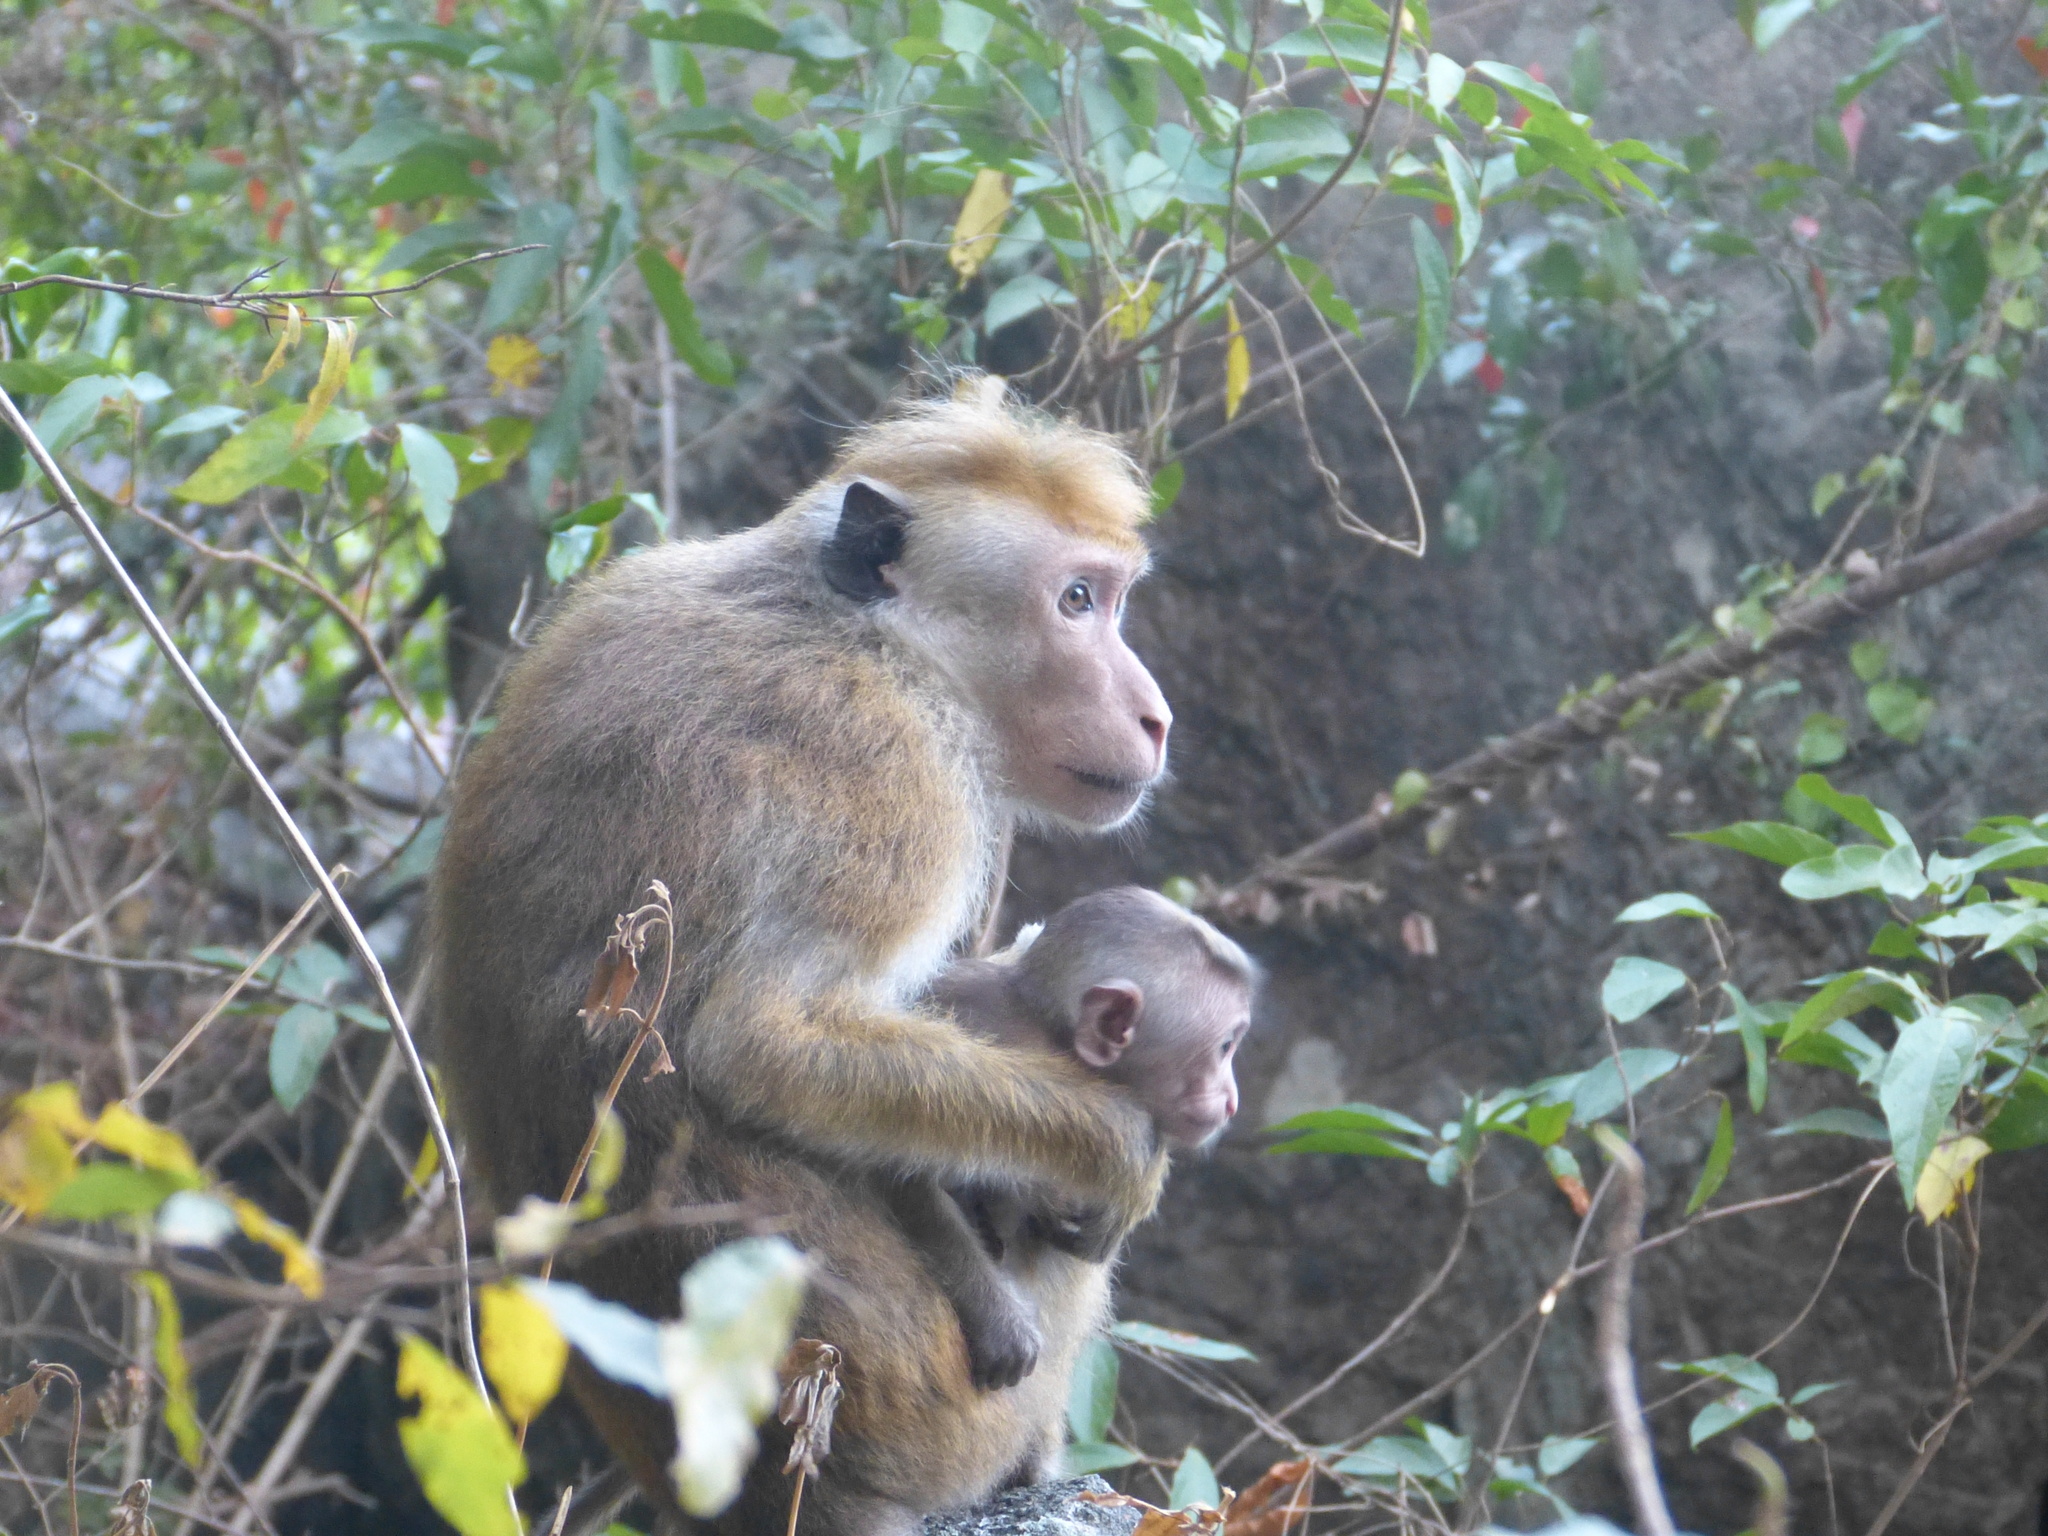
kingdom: Animalia
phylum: Chordata
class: Mammalia
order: Primates
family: Cercopithecidae
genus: Macaca
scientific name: Macaca sinica
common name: Toque macaque
